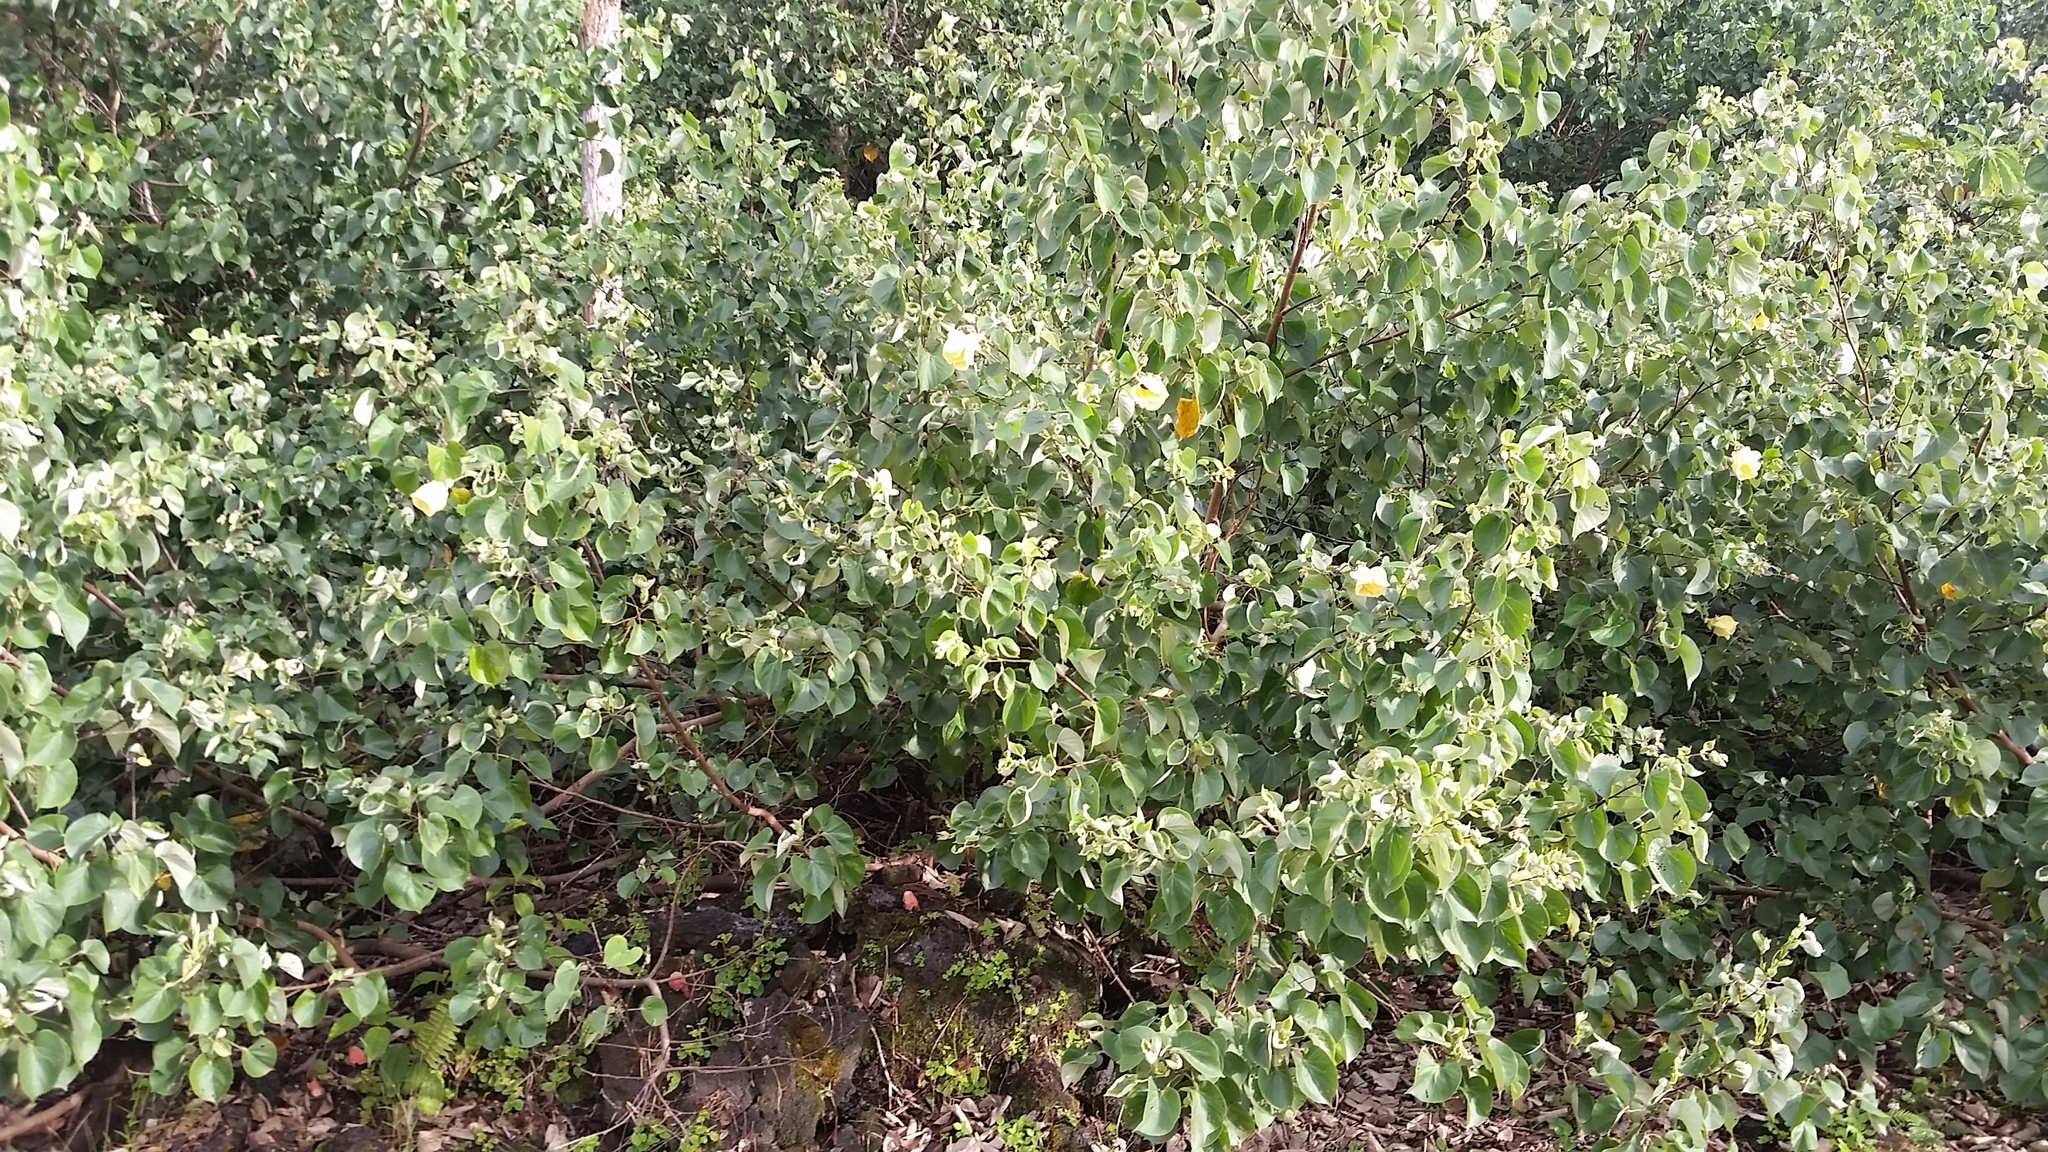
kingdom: Plantae
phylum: Tracheophyta
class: Magnoliopsida
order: Malvales
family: Malvaceae
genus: Talipariti
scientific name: Talipariti tiliaceum
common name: Sea hibiscus
